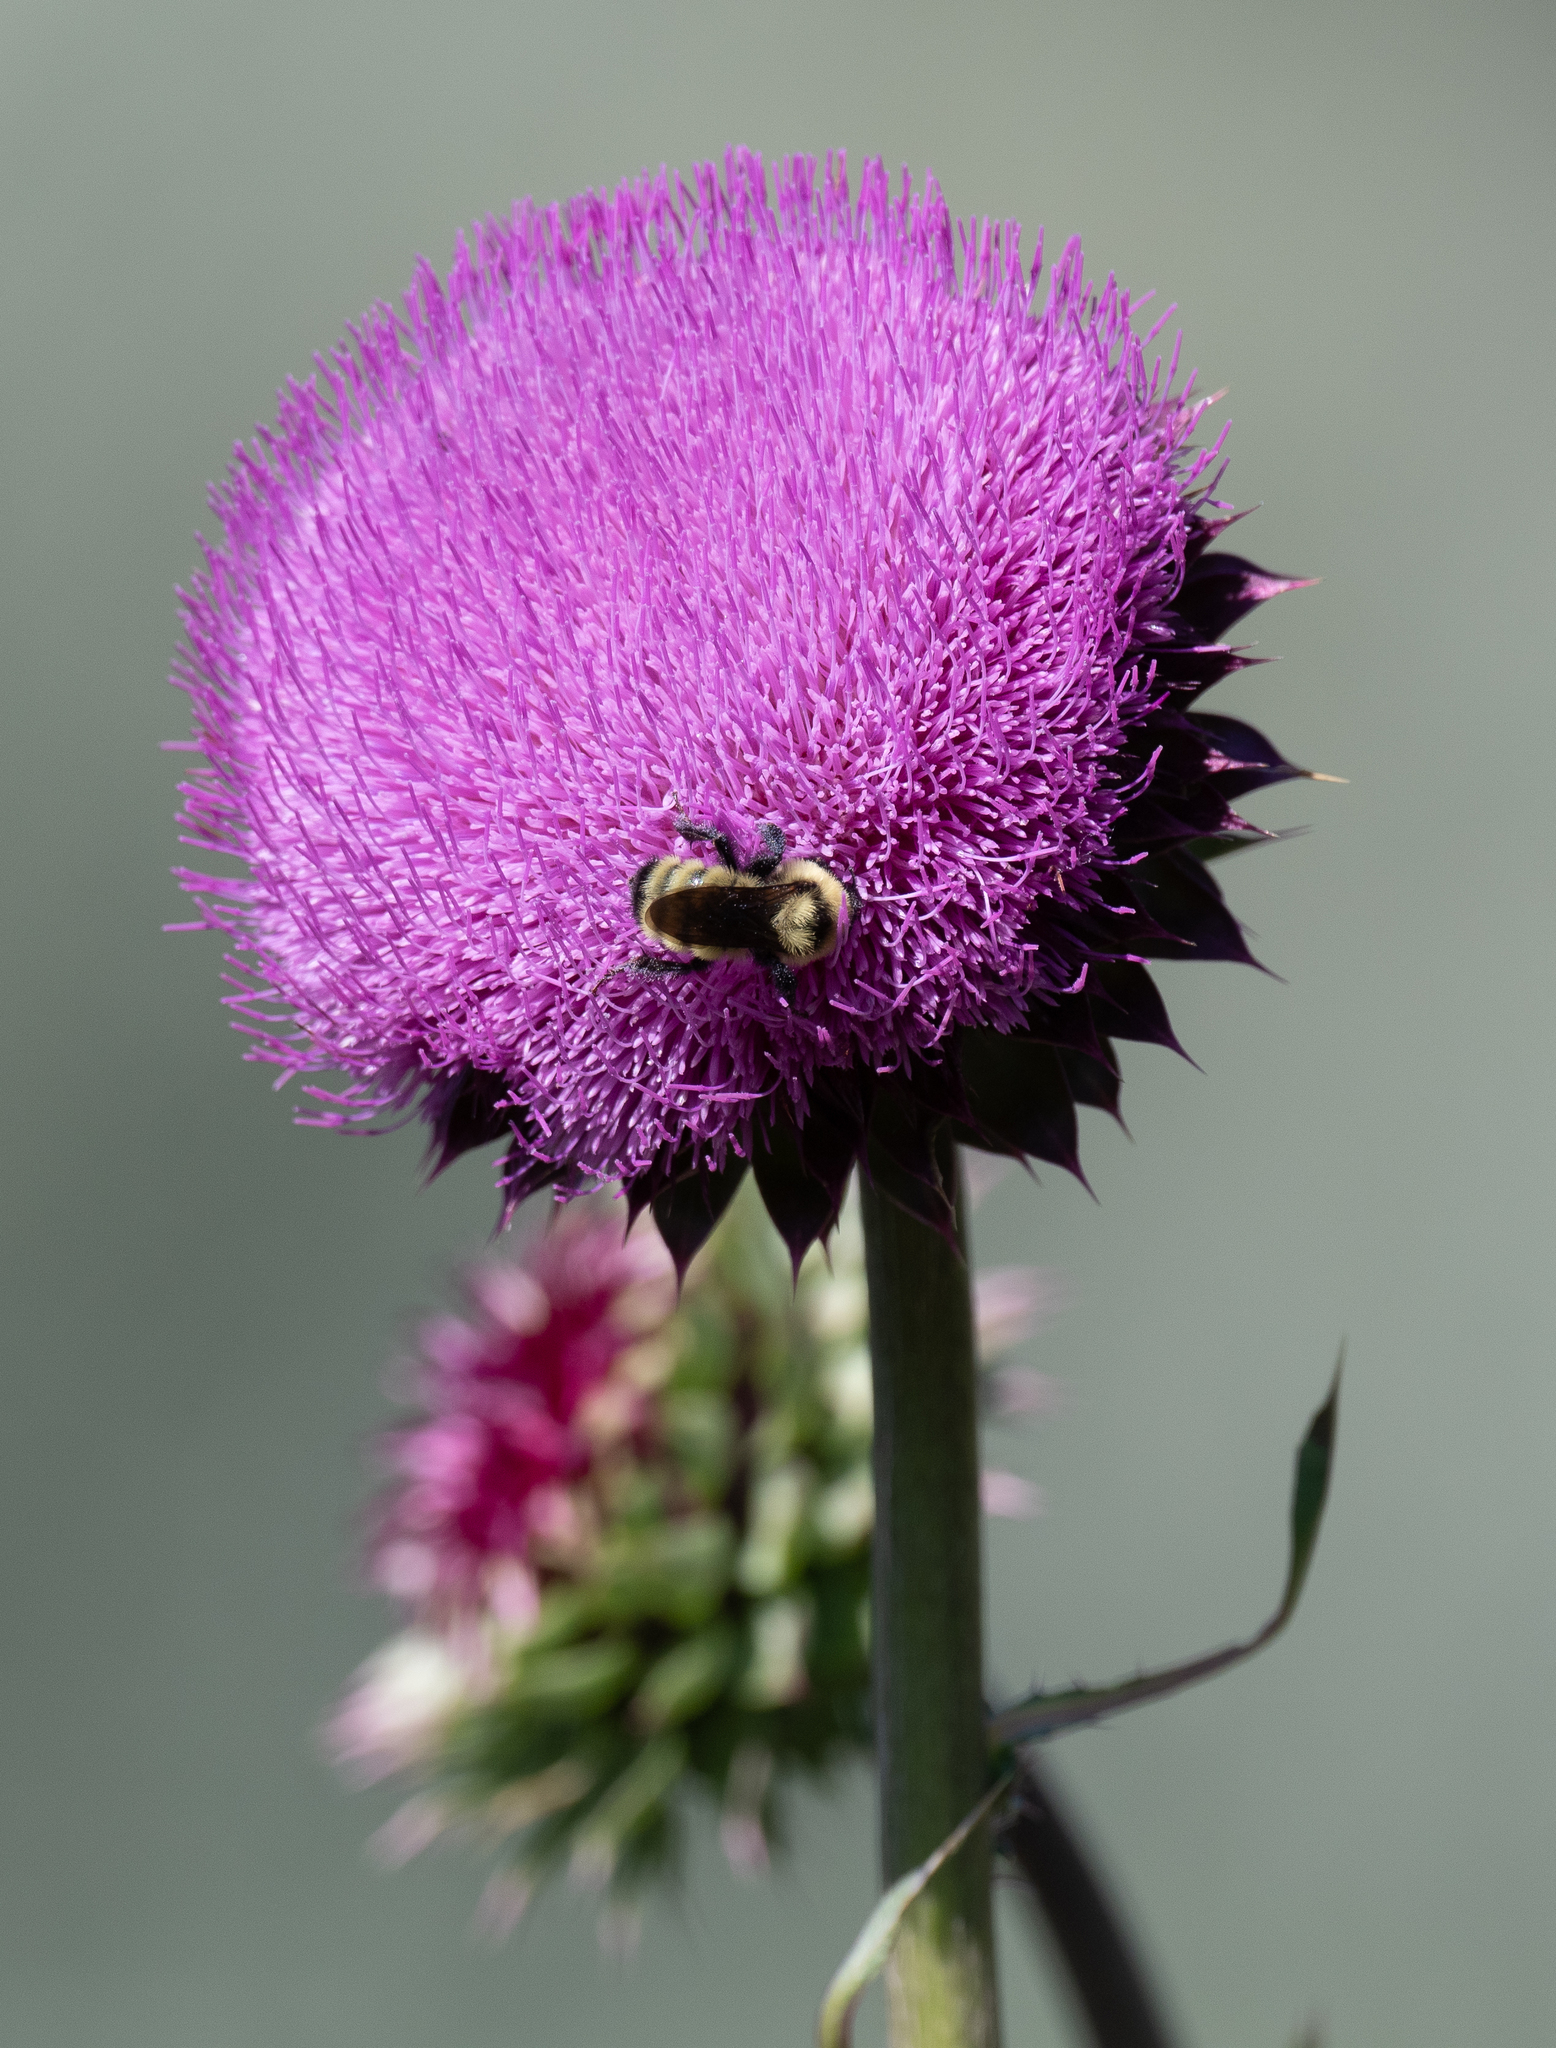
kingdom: Animalia
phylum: Arthropoda
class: Insecta
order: Hymenoptera
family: Apidae
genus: Bombus
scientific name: Bombus fervidus
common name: Yellow bumble bee
